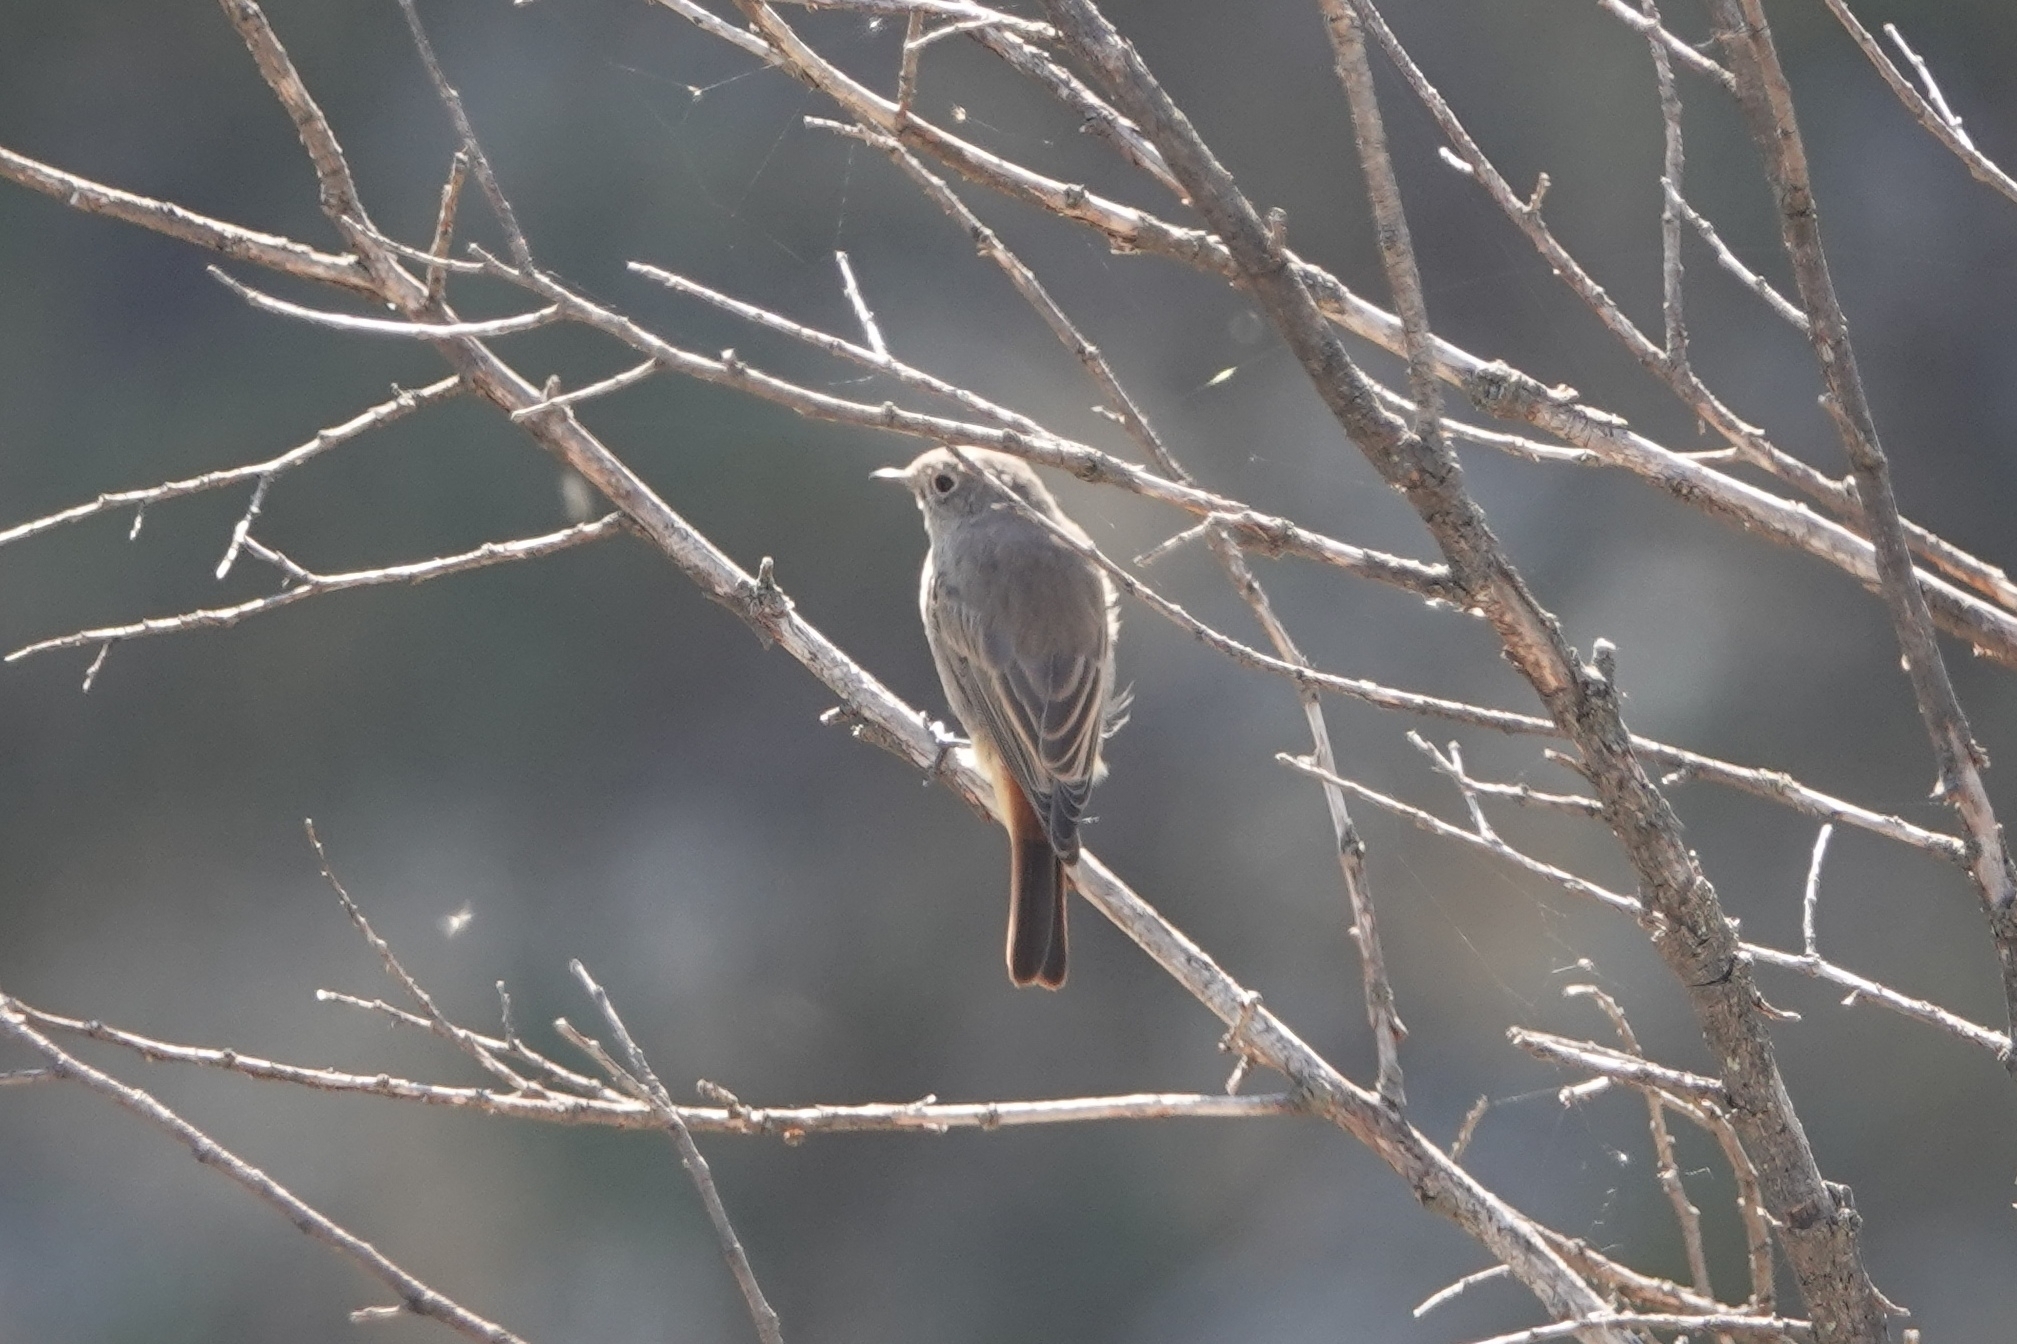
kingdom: Animalia
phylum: Chordata
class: Aves
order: Passeriformes
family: Muscicapidae
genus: Phoenicurus
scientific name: Phoenicurus ochruros
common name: Black redstart
